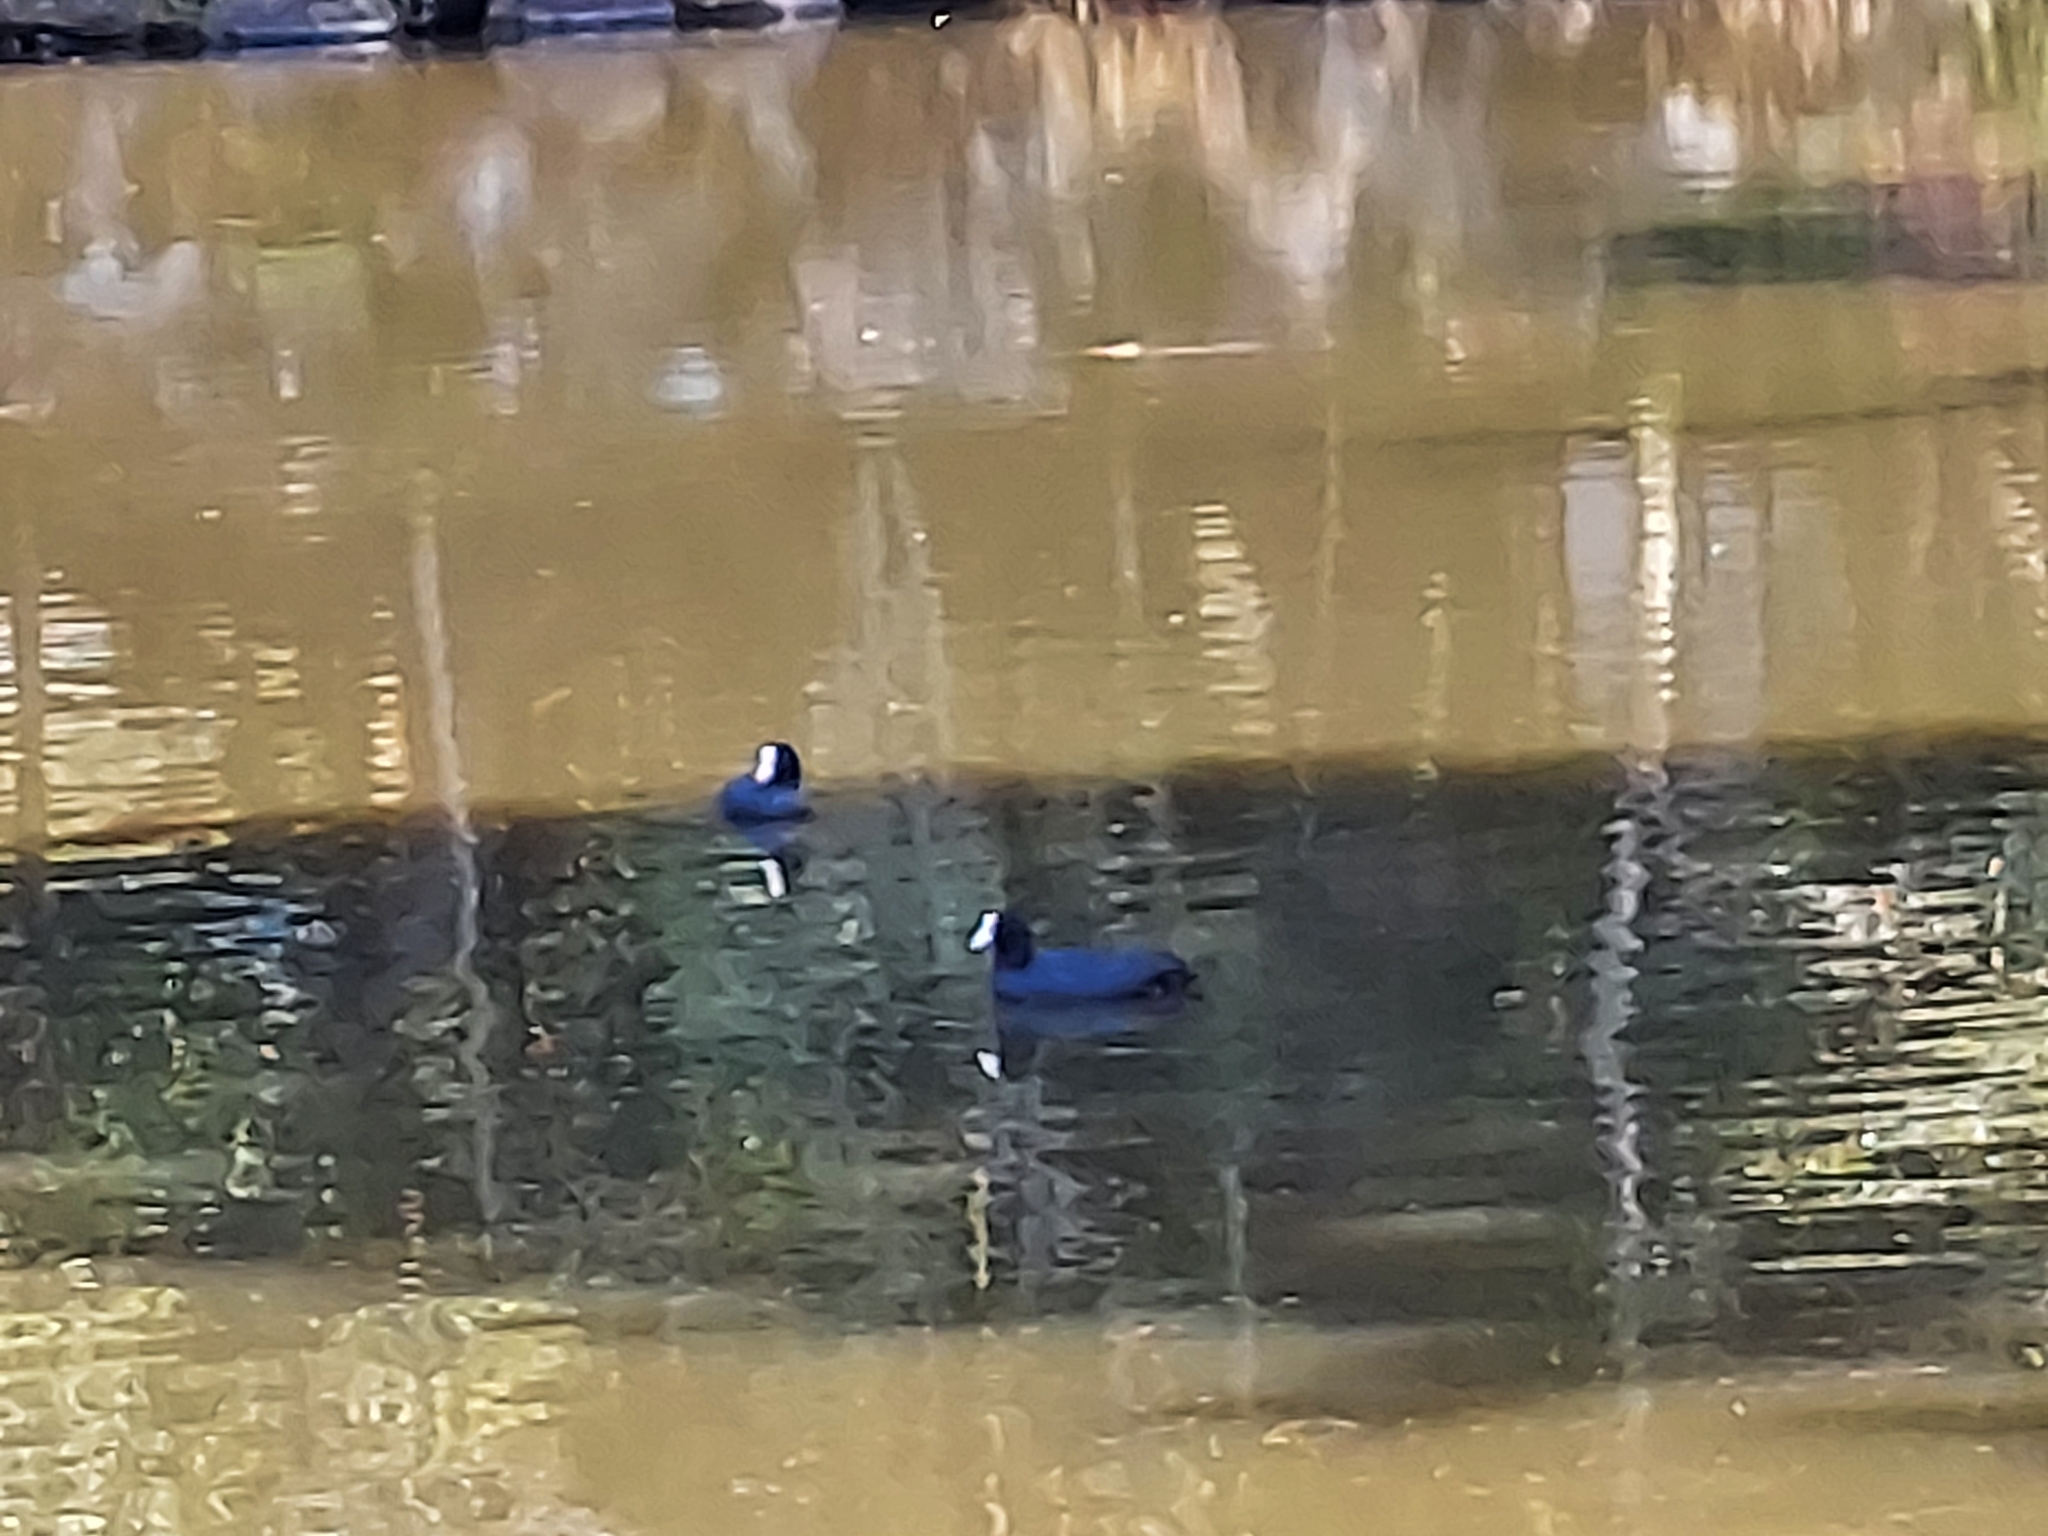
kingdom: Animalia
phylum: Chordata
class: Aves
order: Gruiformes
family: Rallidae
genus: Fulica
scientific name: Fulica atra
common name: Eurasian coot
